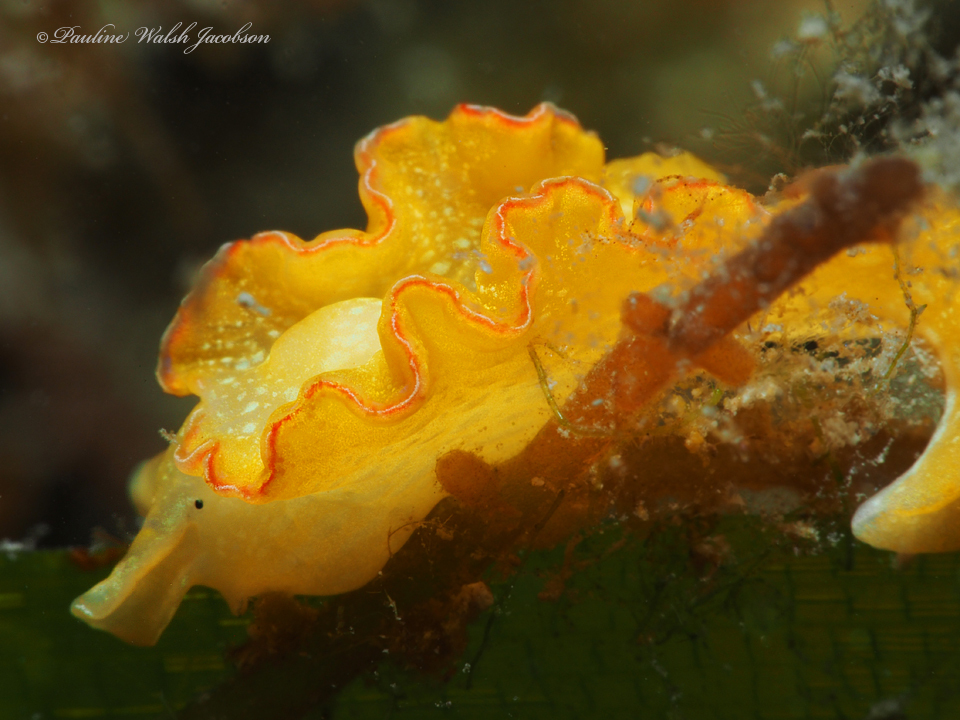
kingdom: Animalia
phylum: Mollusca
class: Gastropoda
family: Plakobranchidae
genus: Elysia
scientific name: Elysia crispata
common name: Lettuce slug
